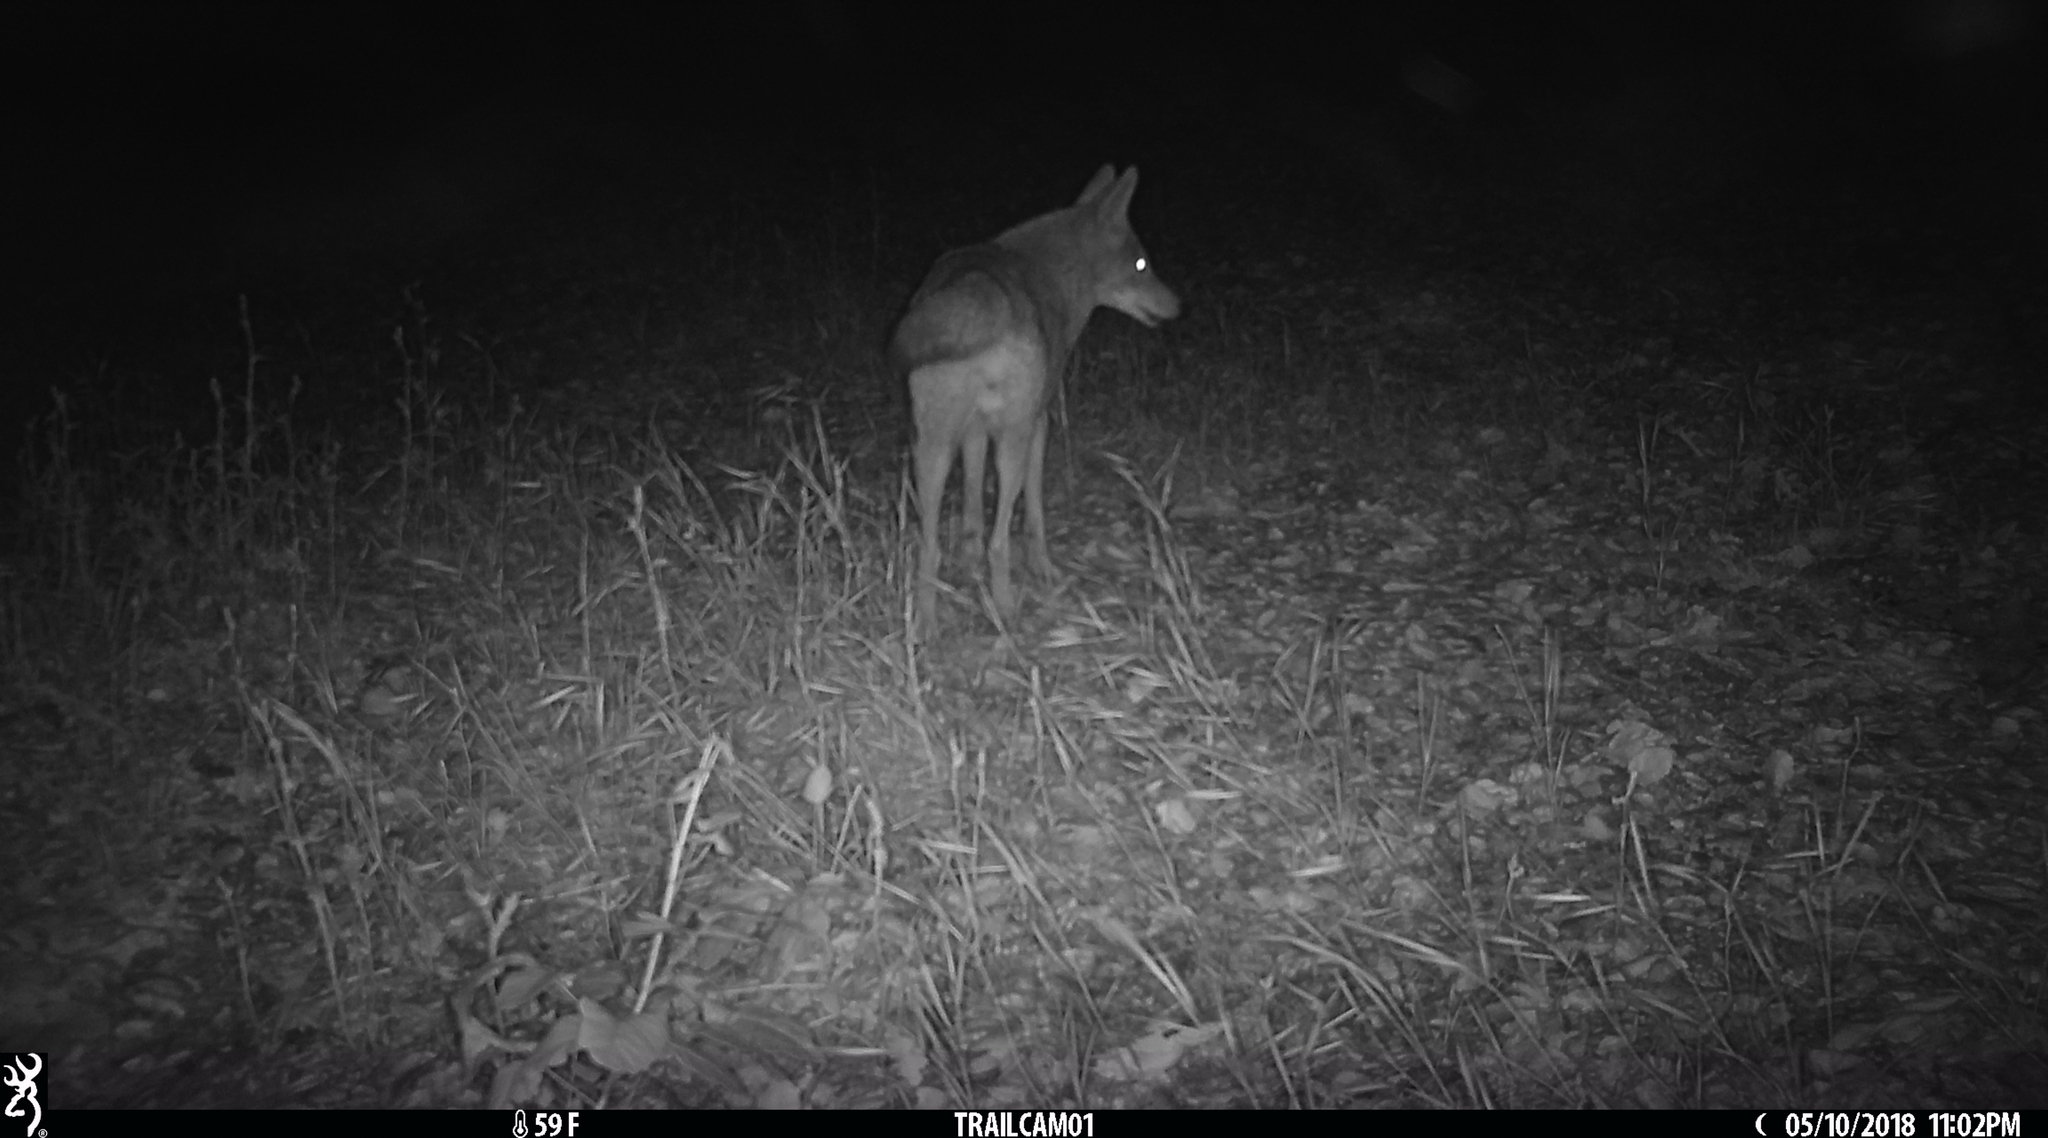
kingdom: Animalia
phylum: Chordata
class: Mammalia
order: Carnivora
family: Canidae
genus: Canis
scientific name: Canis latrans
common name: Coyote
